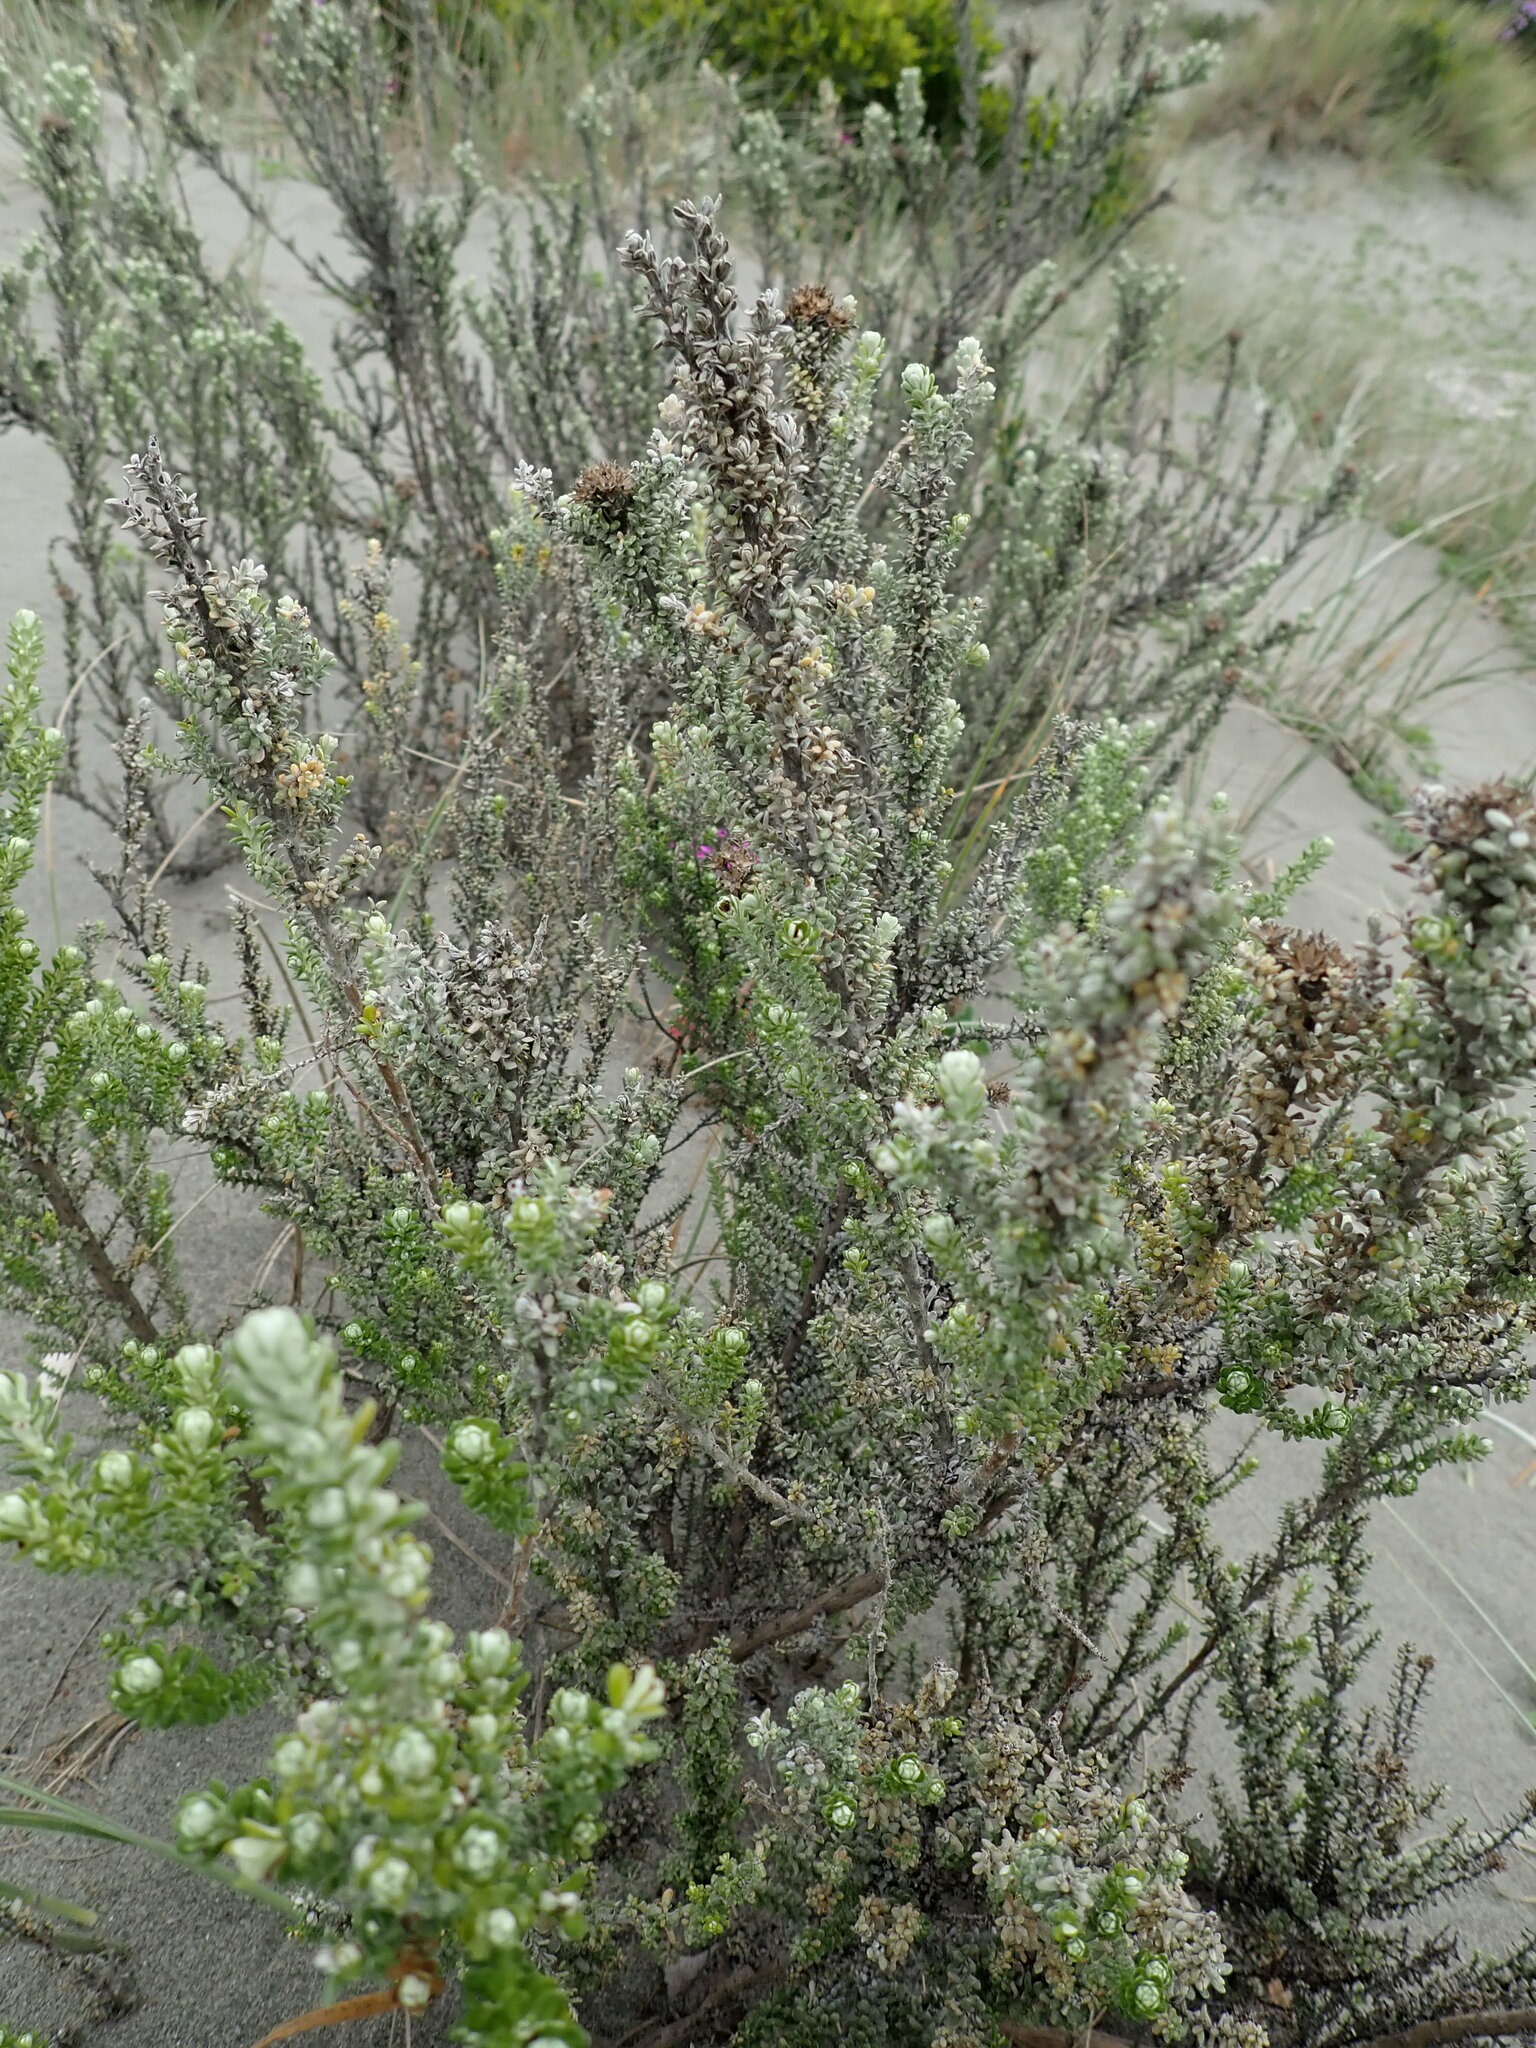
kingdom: Plantae
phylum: Tracheophyta
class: Magnoliopsida
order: Asterales
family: Asteraceae
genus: Ozothamnus
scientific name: Ozothamnus leptophyllus
